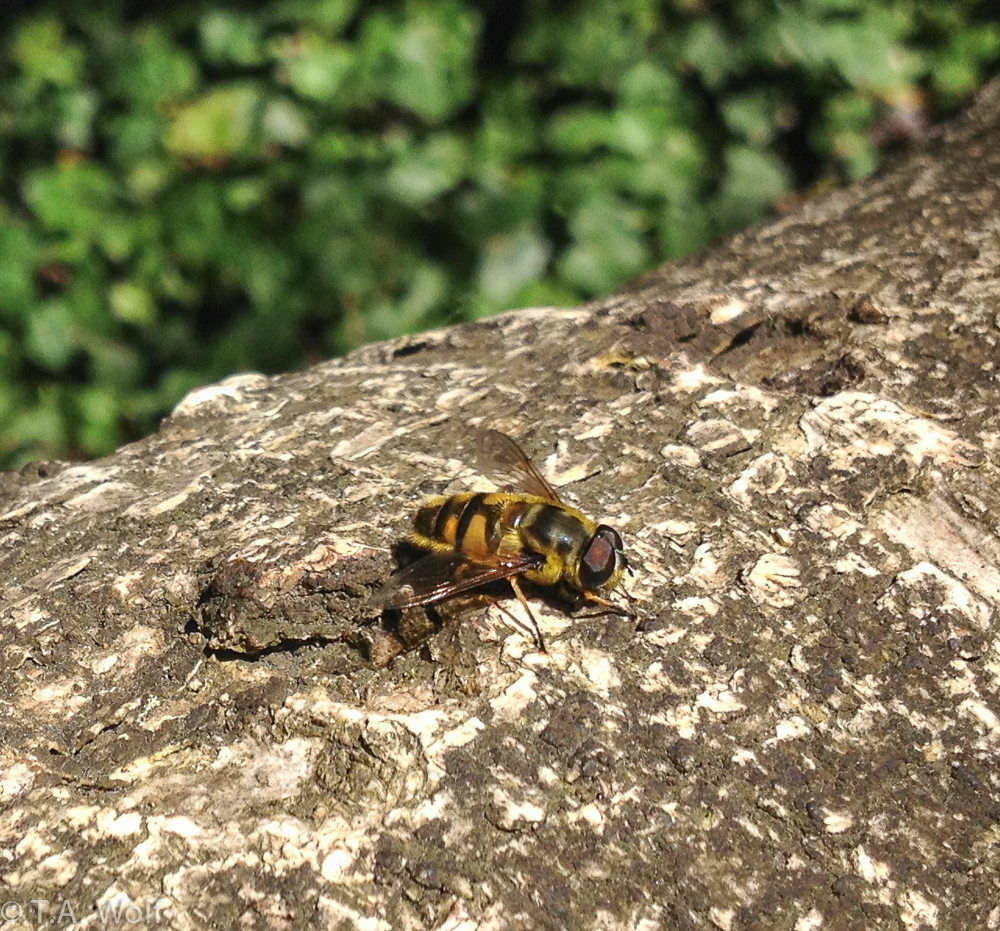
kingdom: Animalia
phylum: Arthropoda
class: Insecta
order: Diptera
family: Syrphidae
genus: Myathropa
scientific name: Myathropa florea
